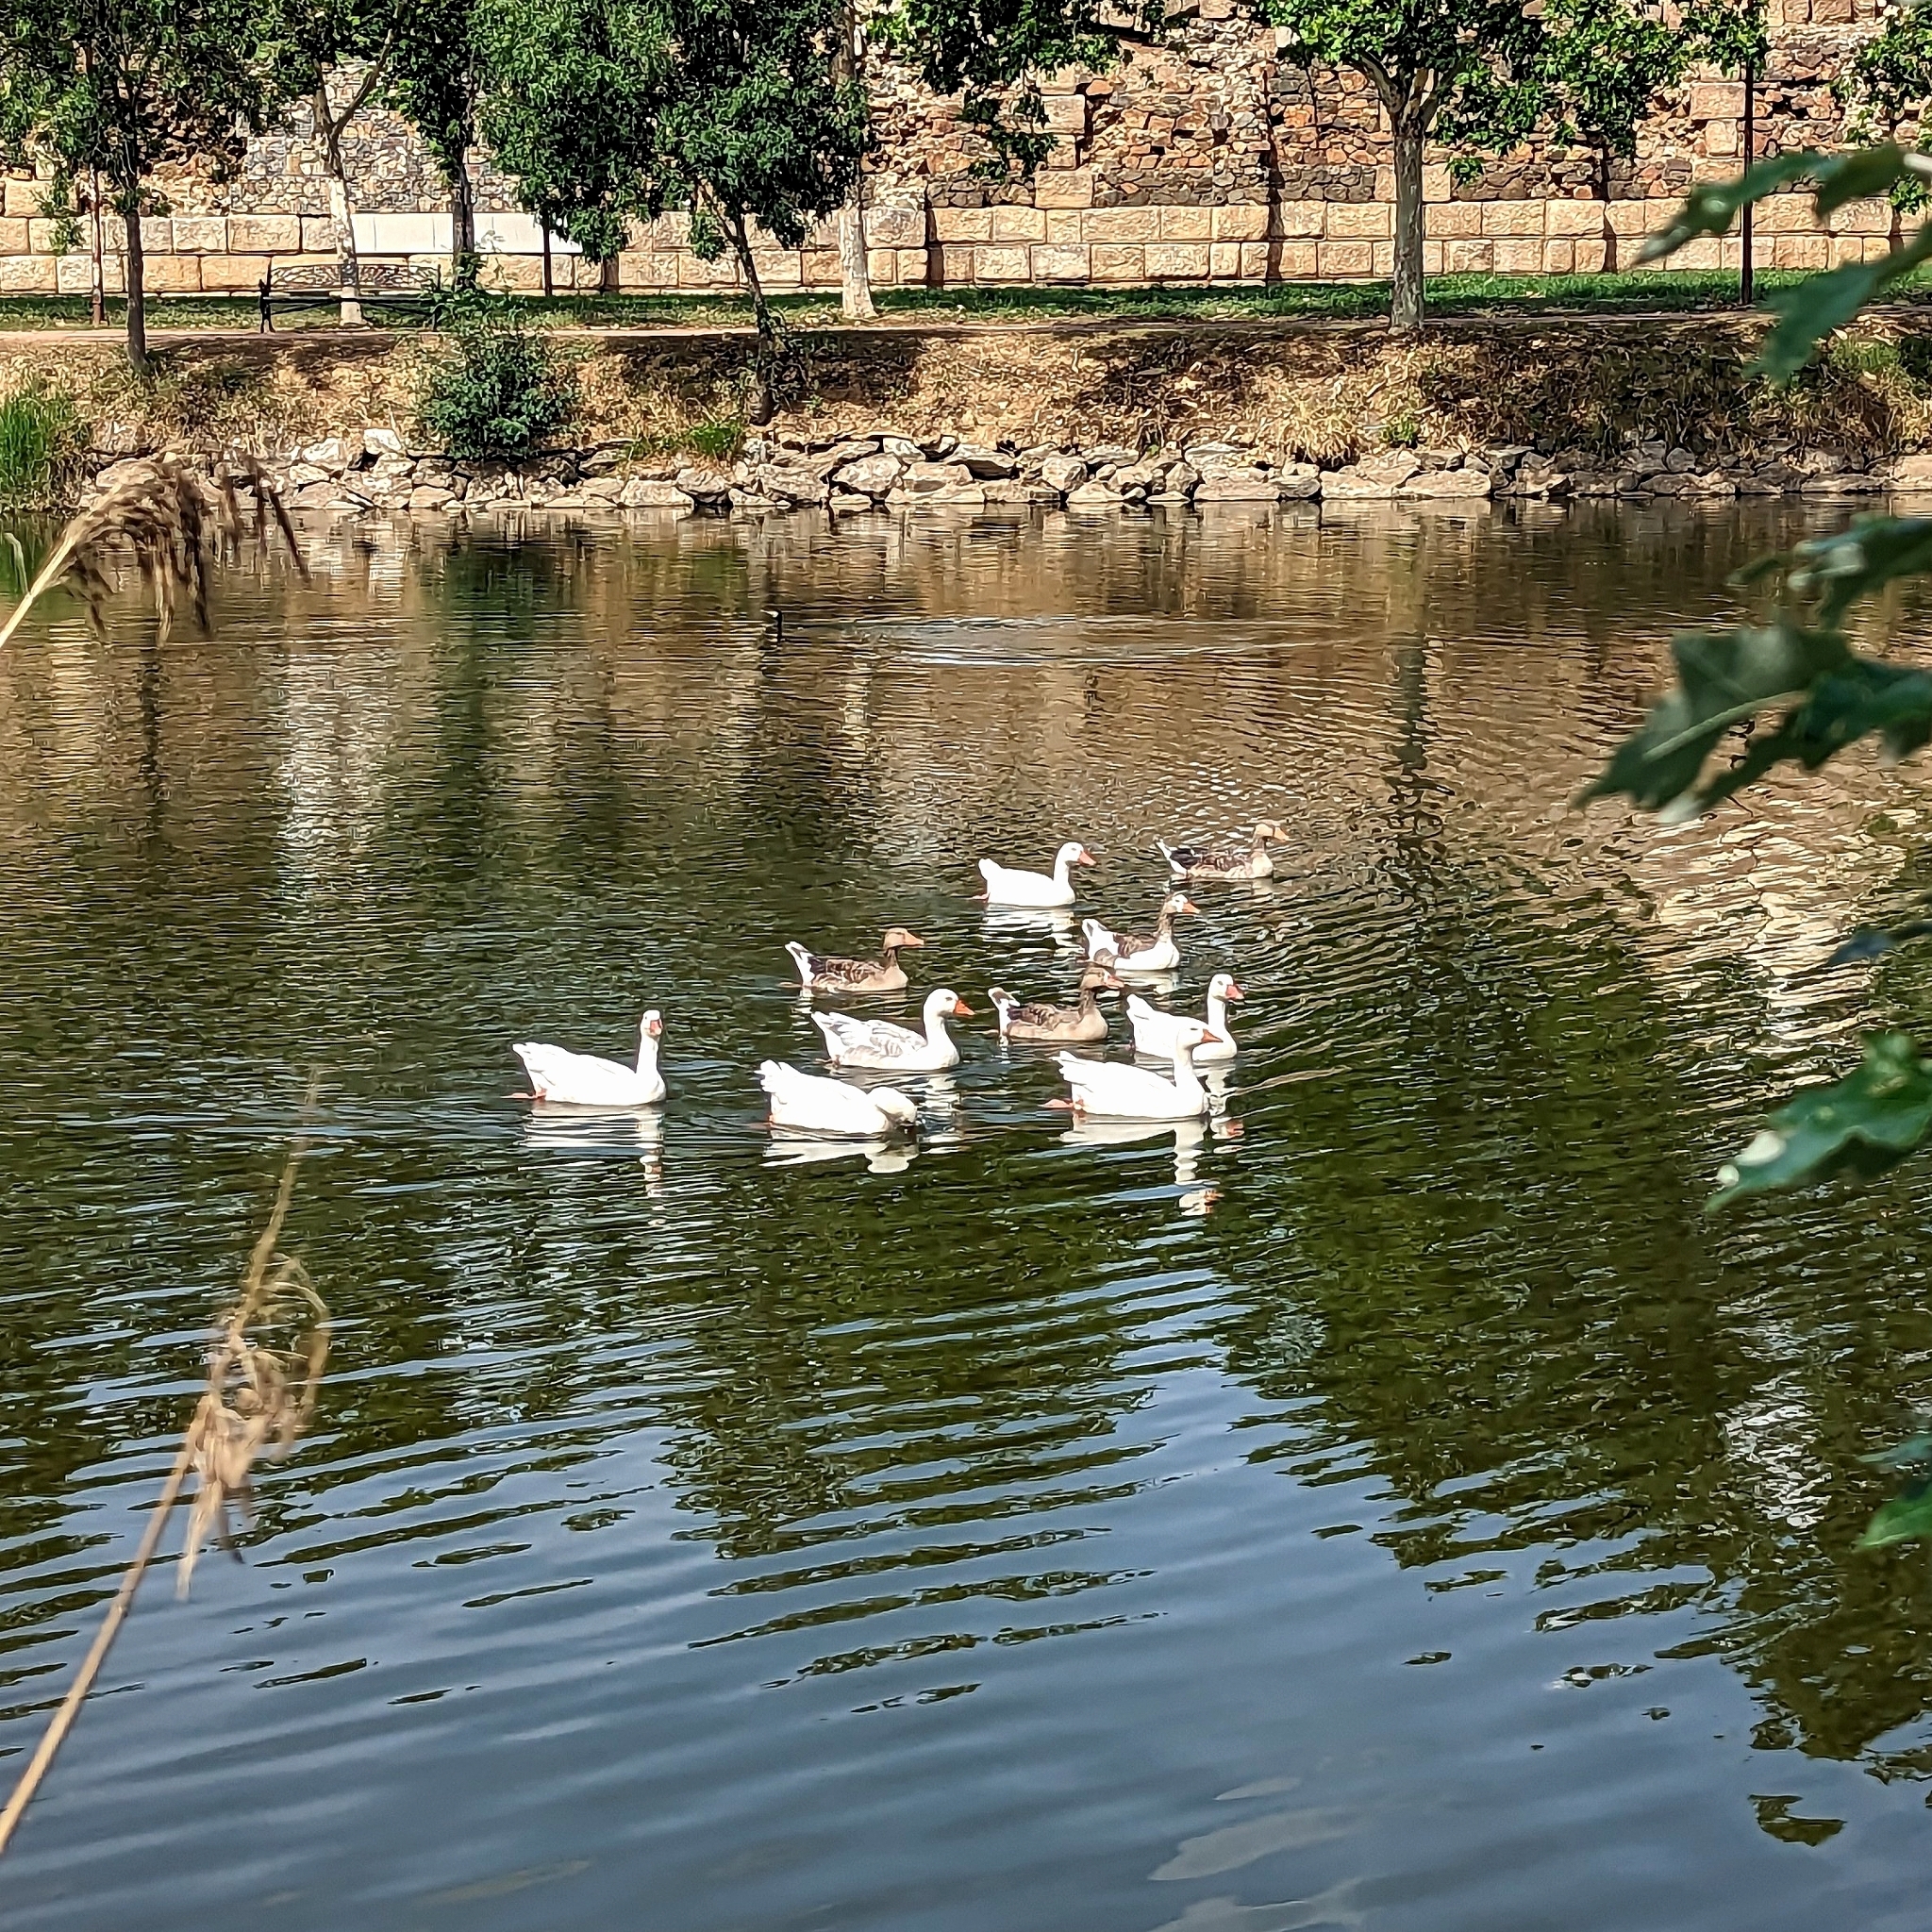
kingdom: Animalia
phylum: Chordata
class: Aves
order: Anseriformes
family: Anatidae
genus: Anser
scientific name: Anser anser
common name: Greylag goose
